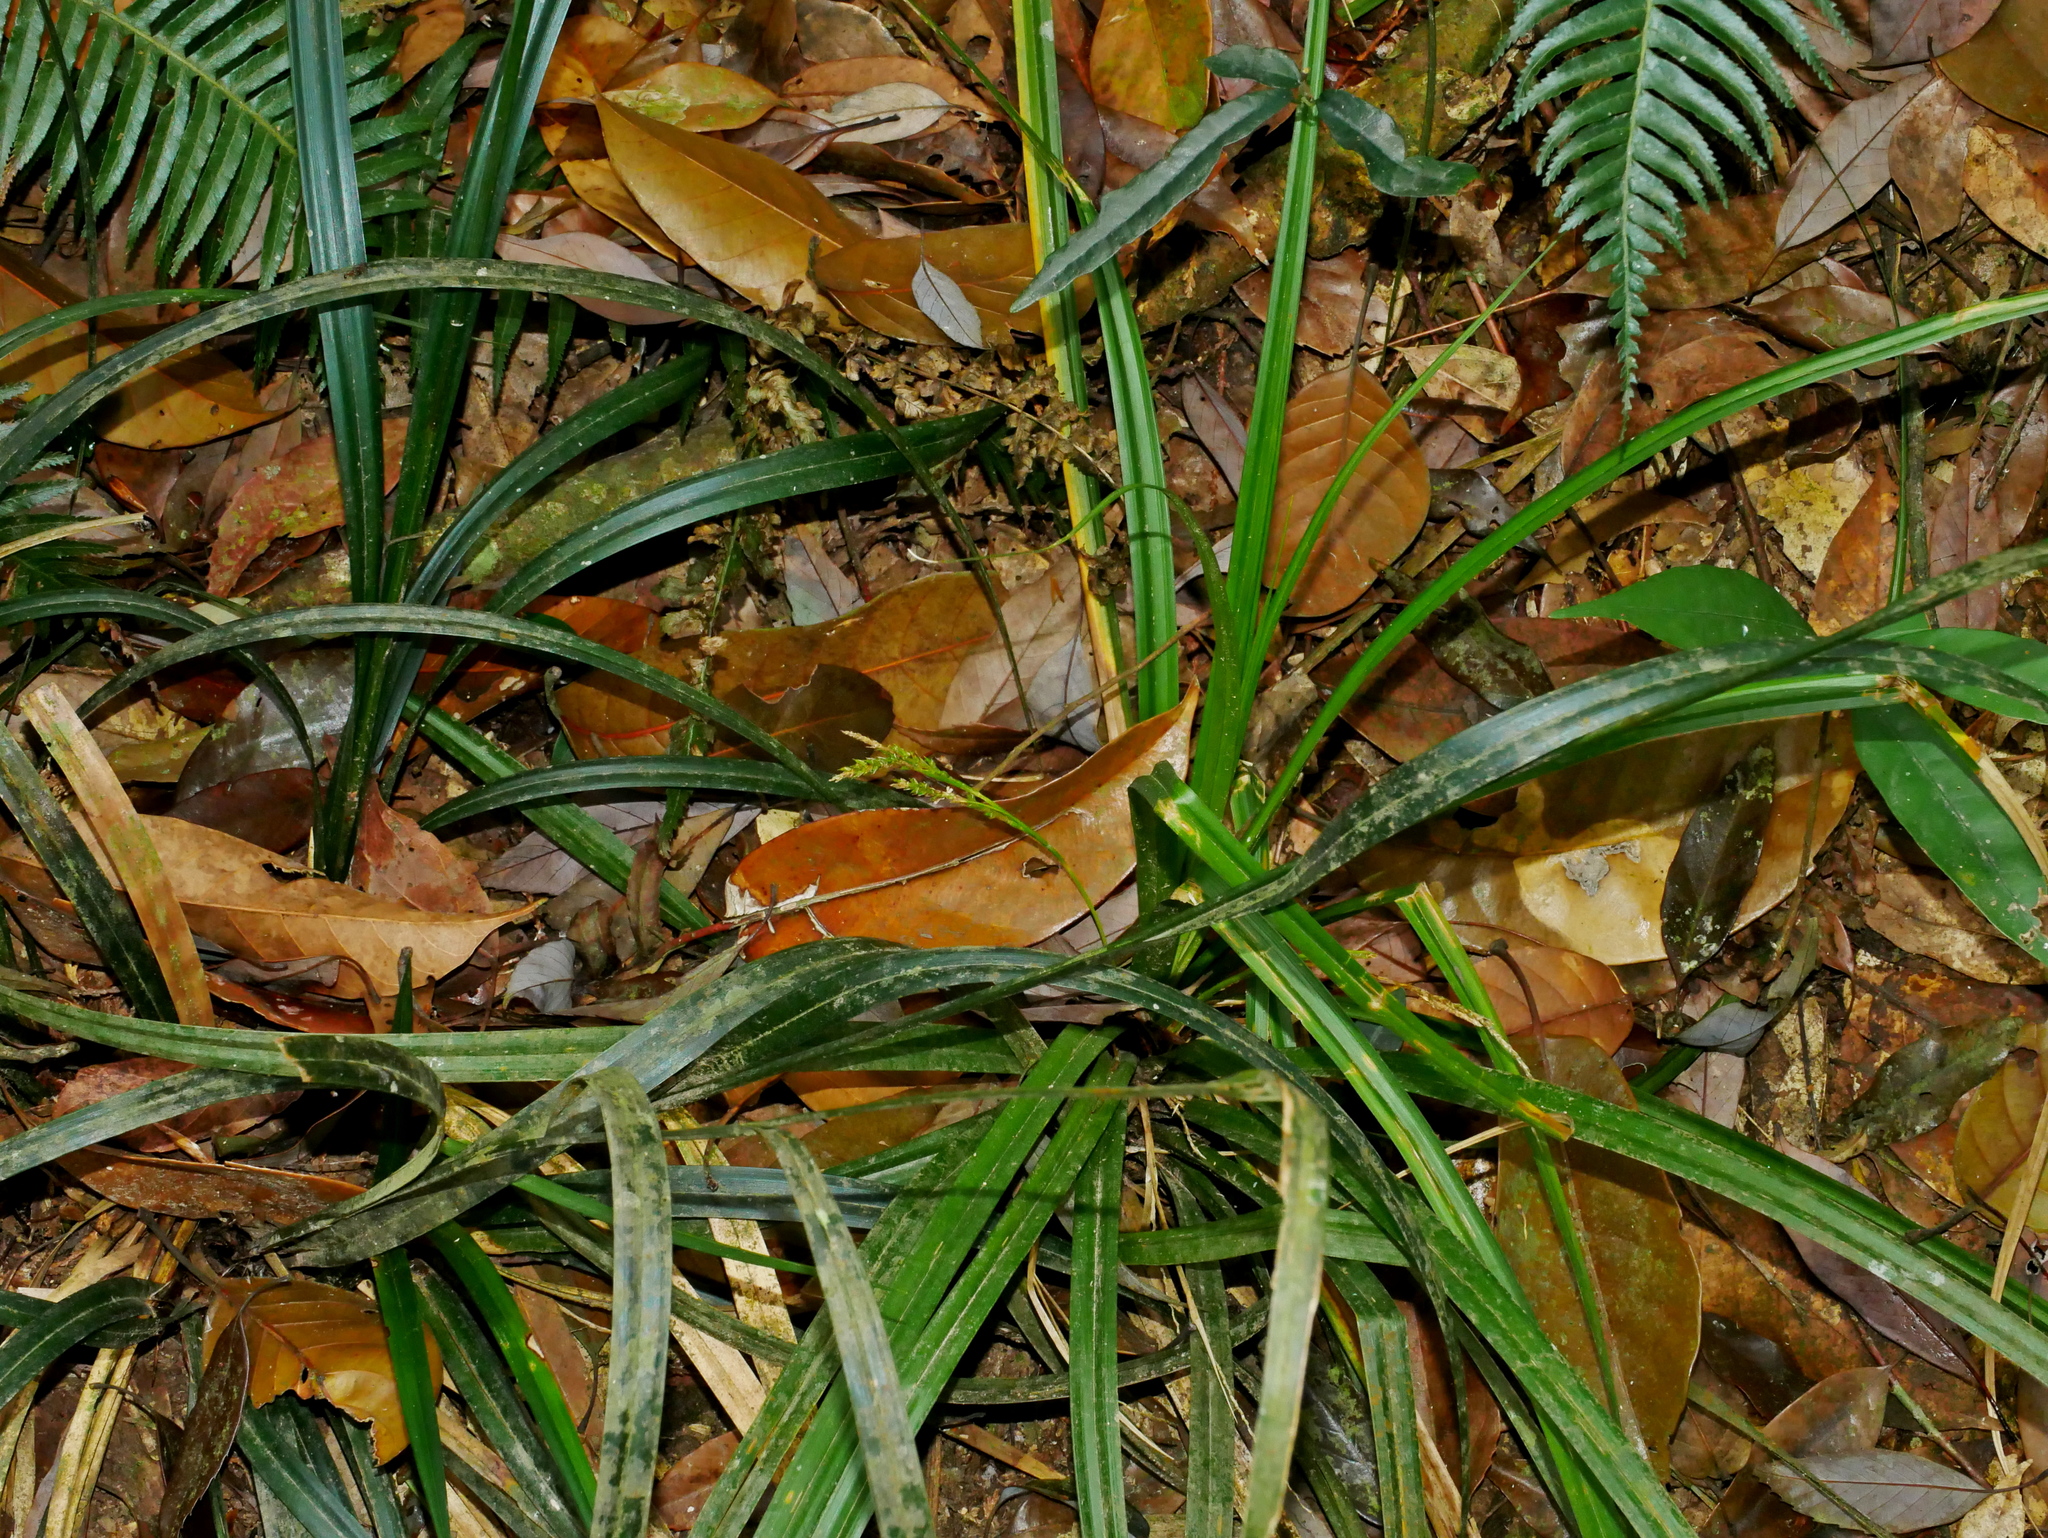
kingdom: Plantae
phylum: Tracheophyta
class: Liliopsida
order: Poales
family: Cyperaceae
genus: Carex
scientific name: Carex truncatigluma
